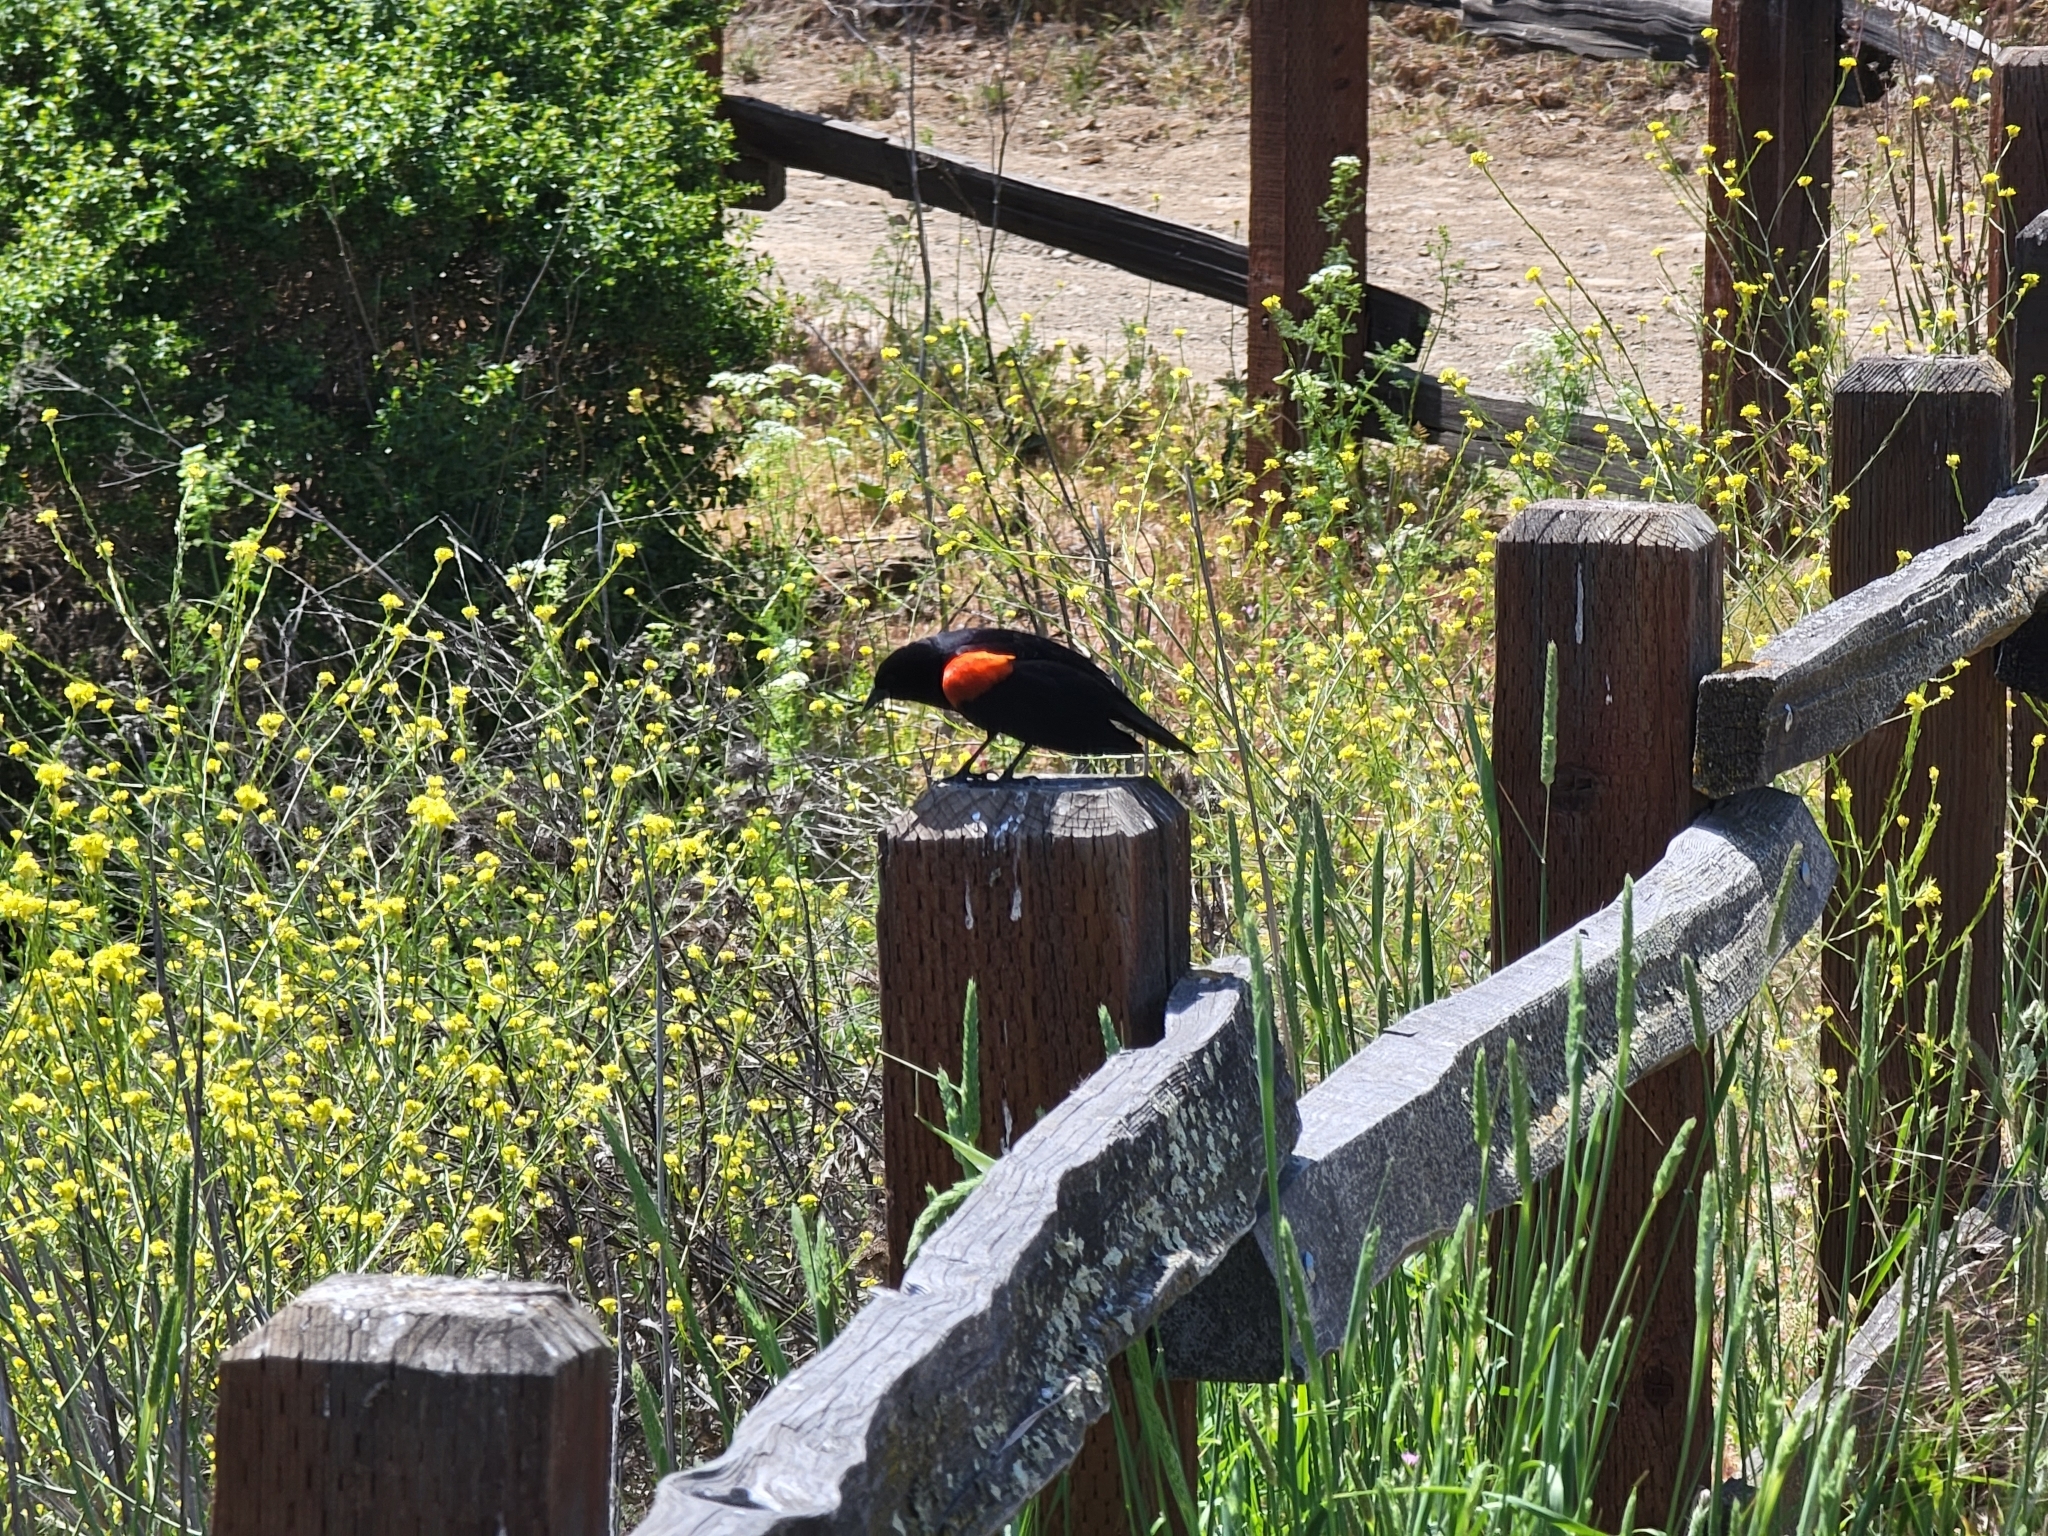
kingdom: Animalia
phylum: Chordata
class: Aves
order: Passeriformes
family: Icteridae
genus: Agelaius
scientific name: Agelaius phoeniceus
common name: Red-winged blackbird
